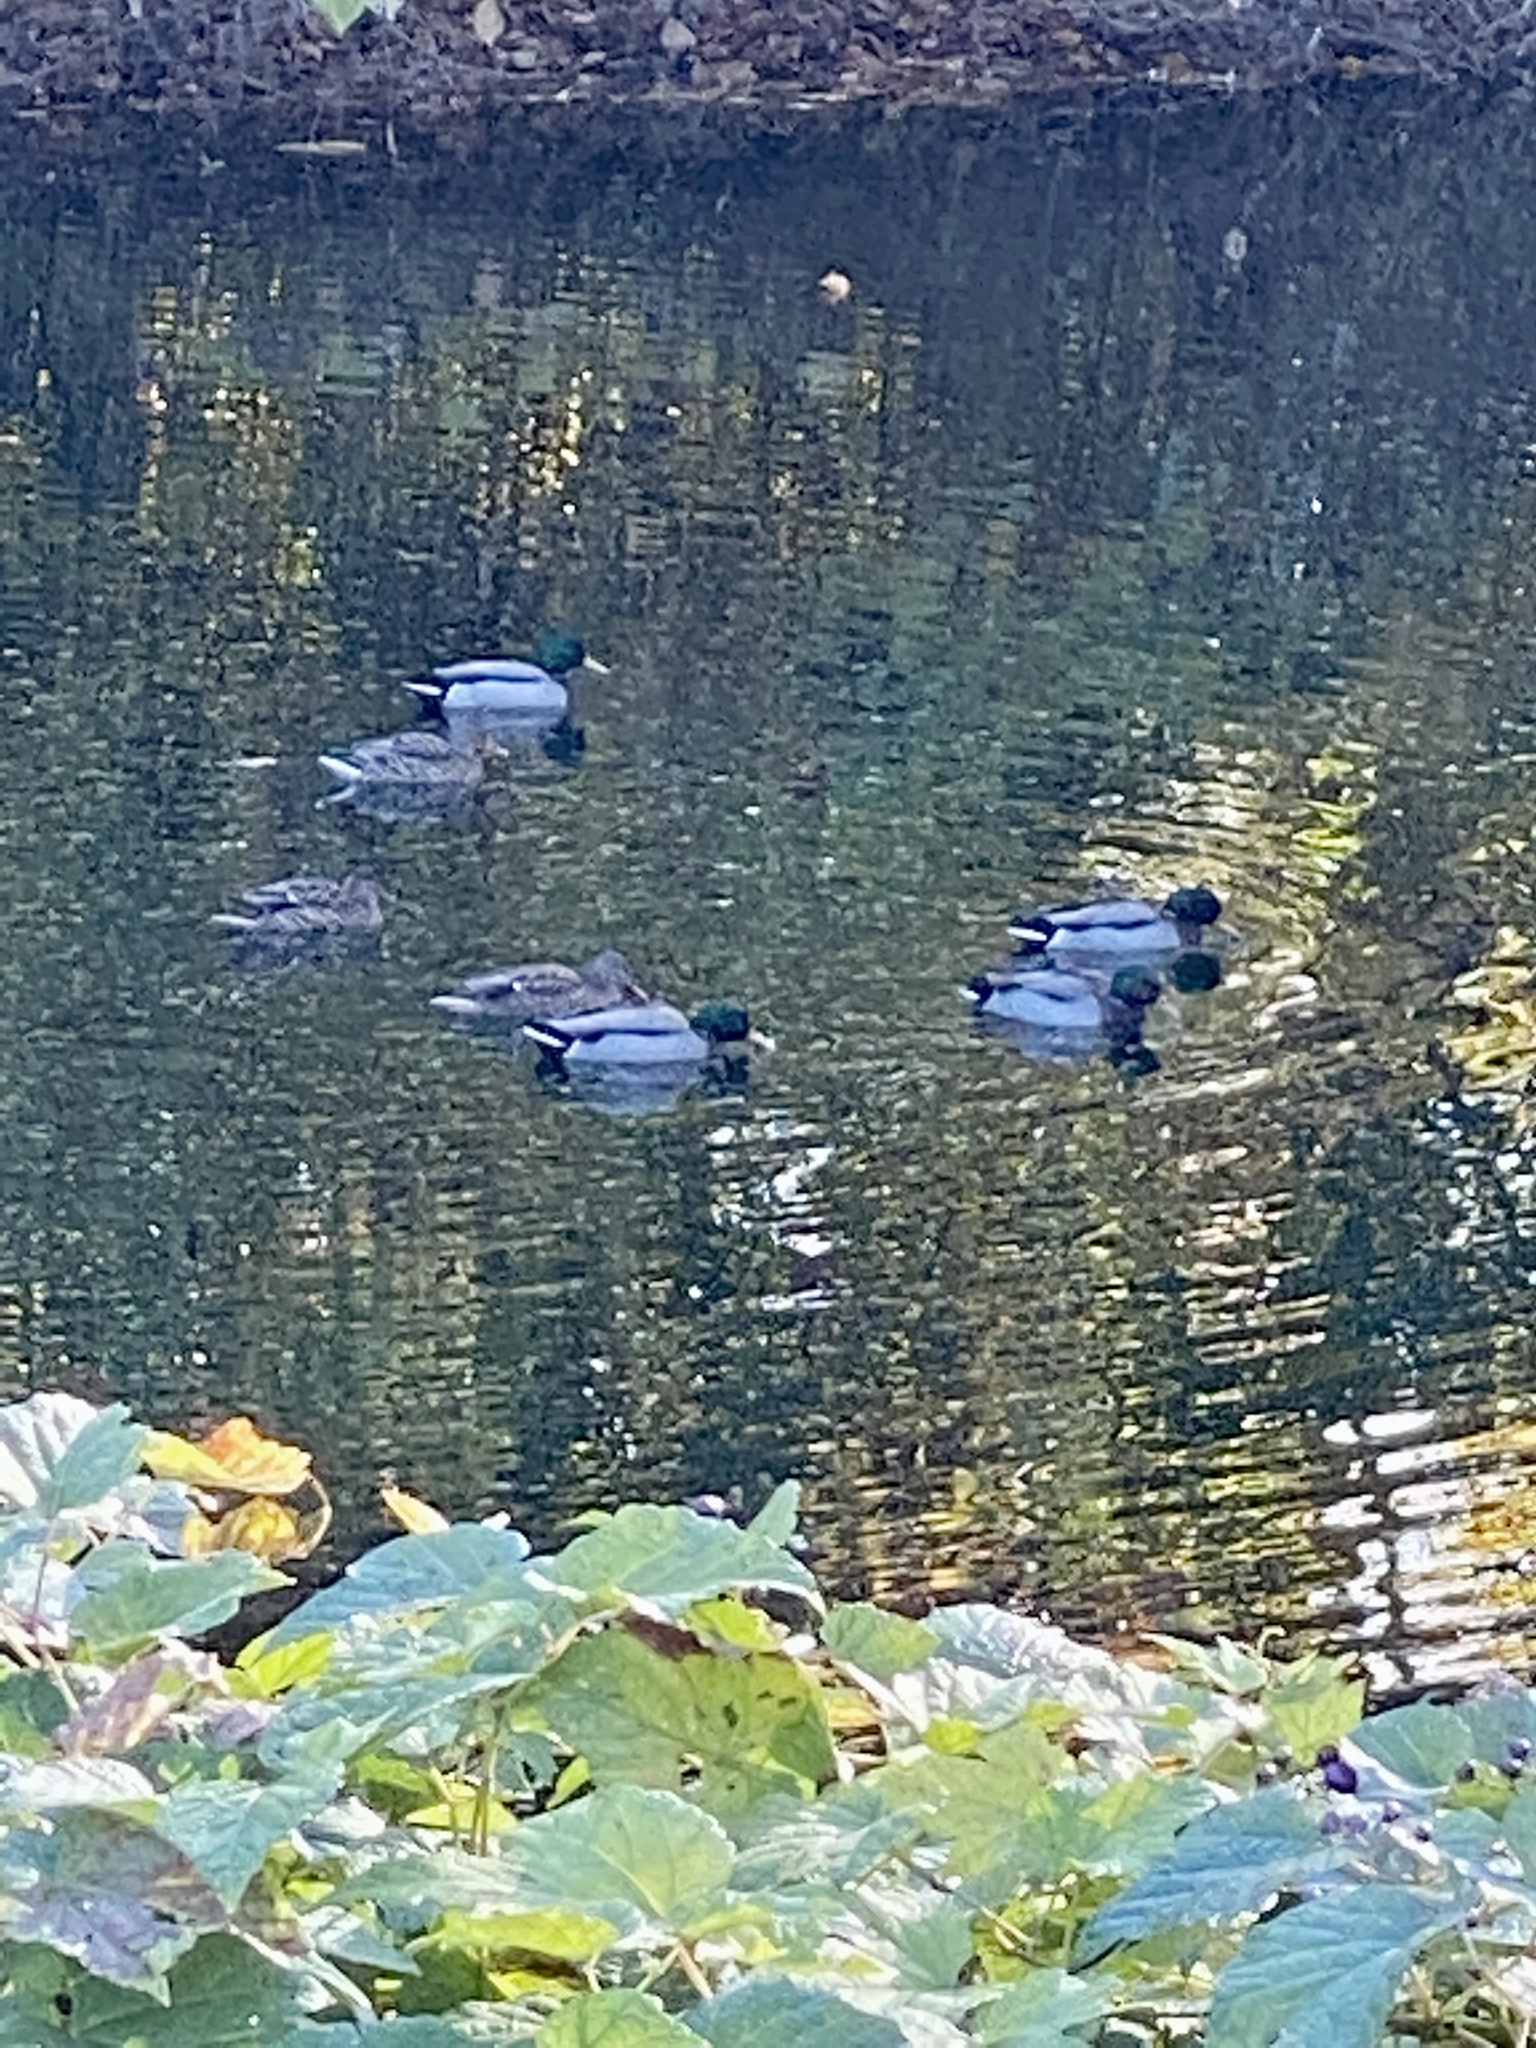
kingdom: Animalia
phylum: Chordata
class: Aves
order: Anseriformes
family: Anatidae
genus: Anas
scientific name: Anas platyrhynchos
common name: Mallard
